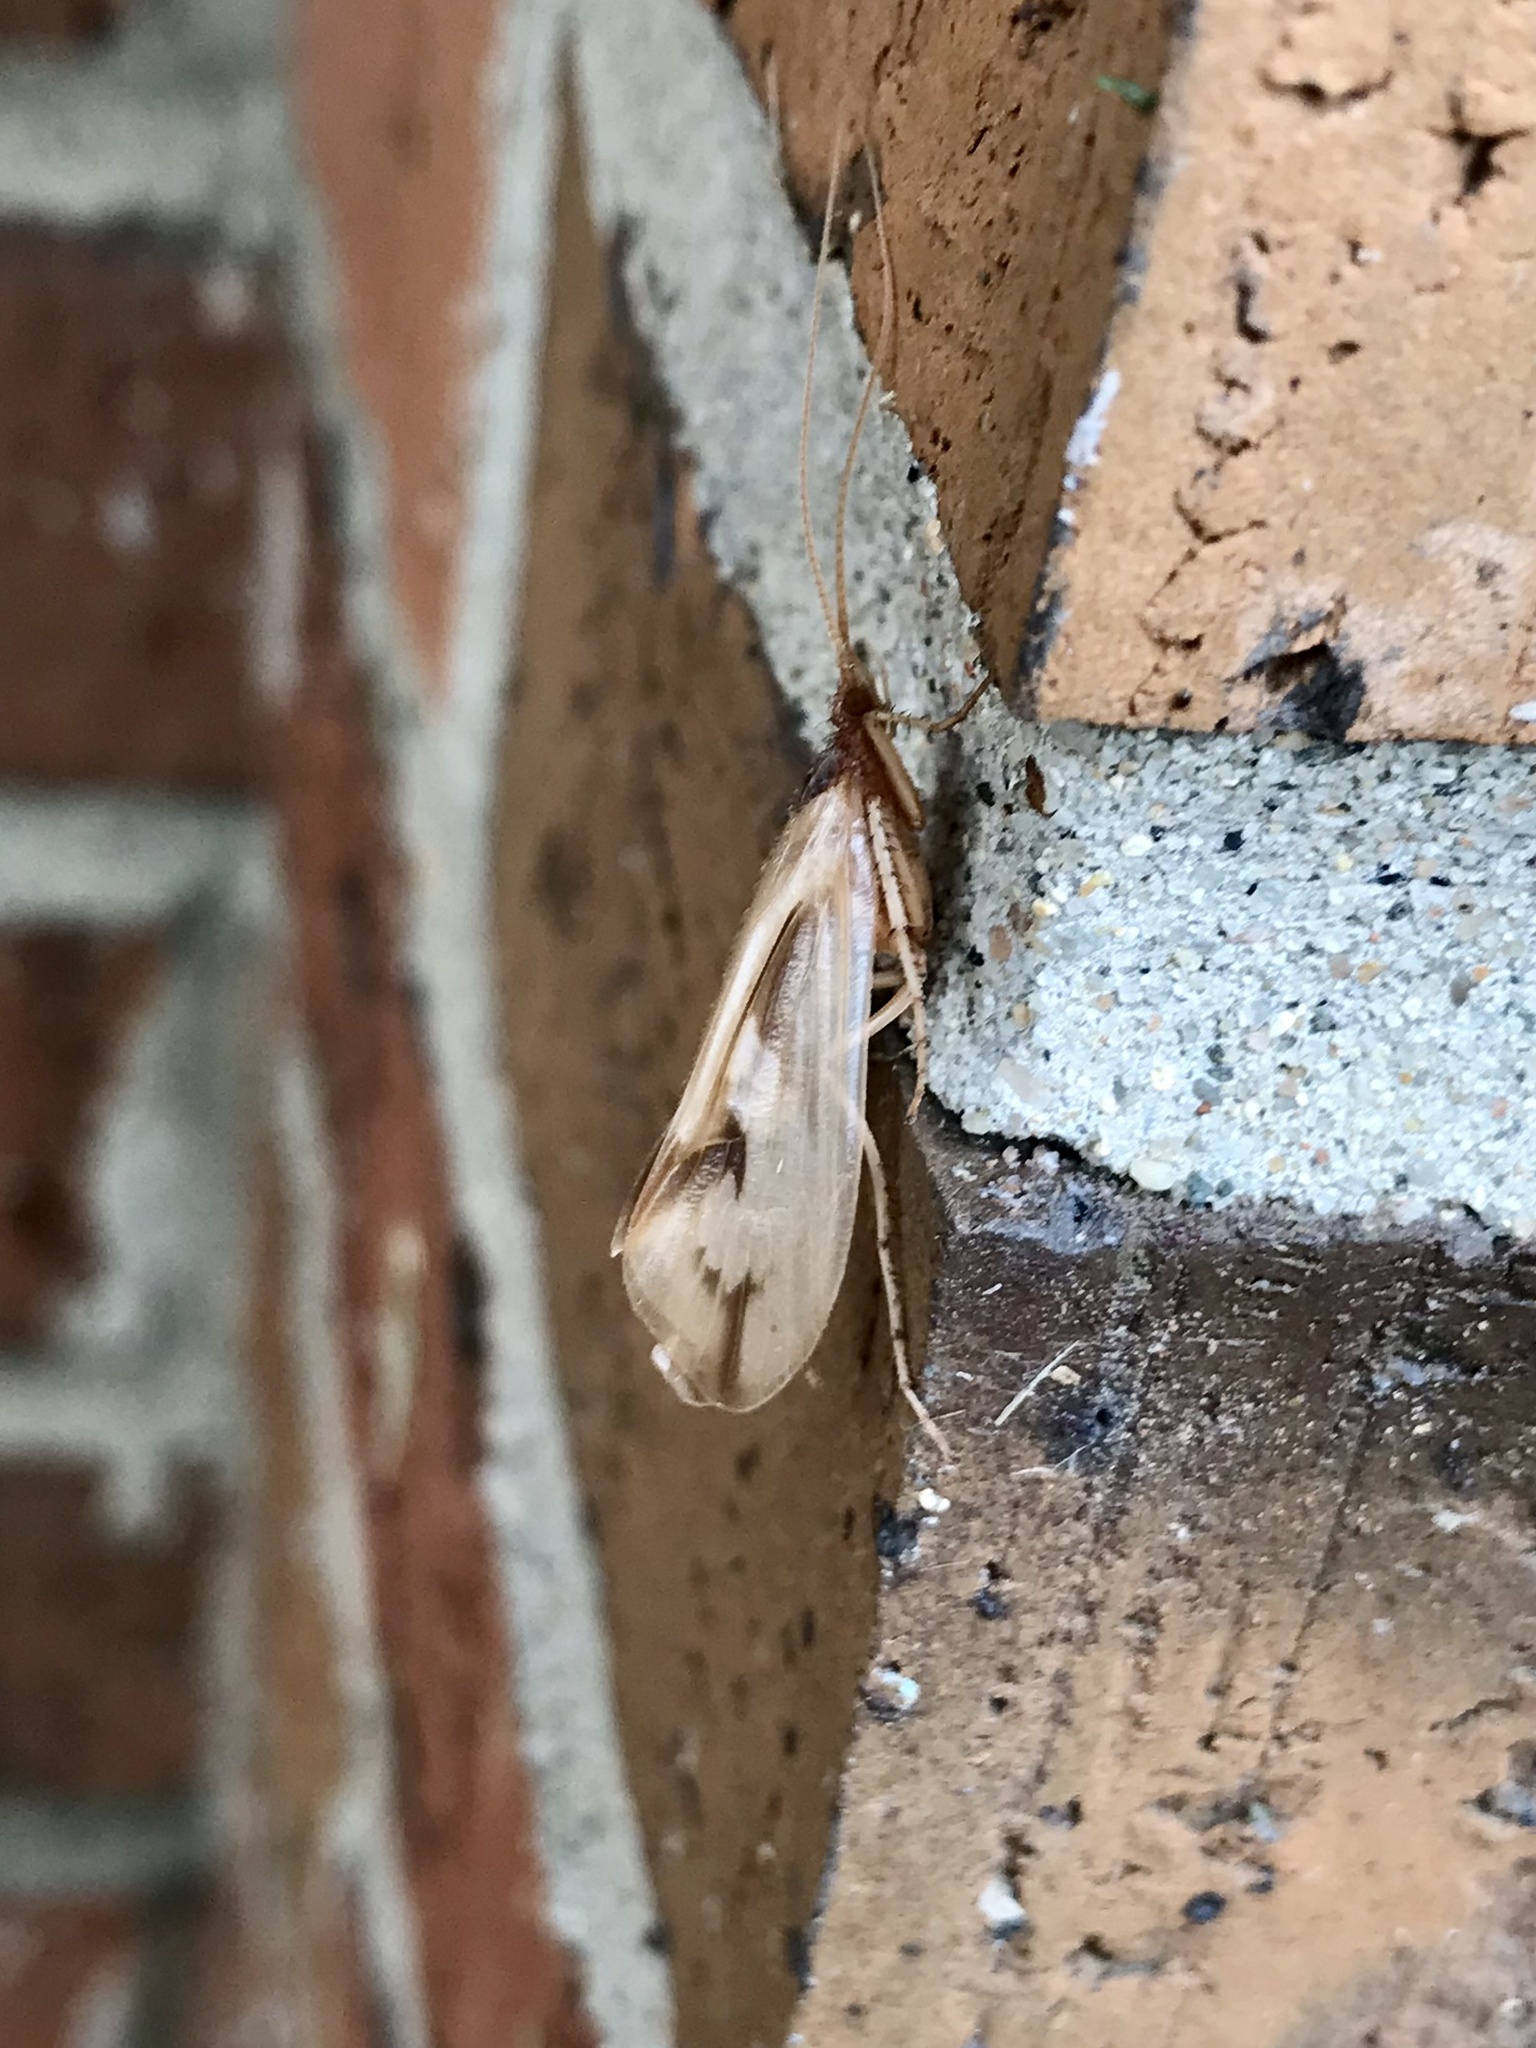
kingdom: Animalia
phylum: Arthropoda
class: Insecta
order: Trichoptera
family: Limnephilidae
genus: Platycentropus
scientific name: Platycentropus radiatus
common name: Chocolate-and-cream sedge
